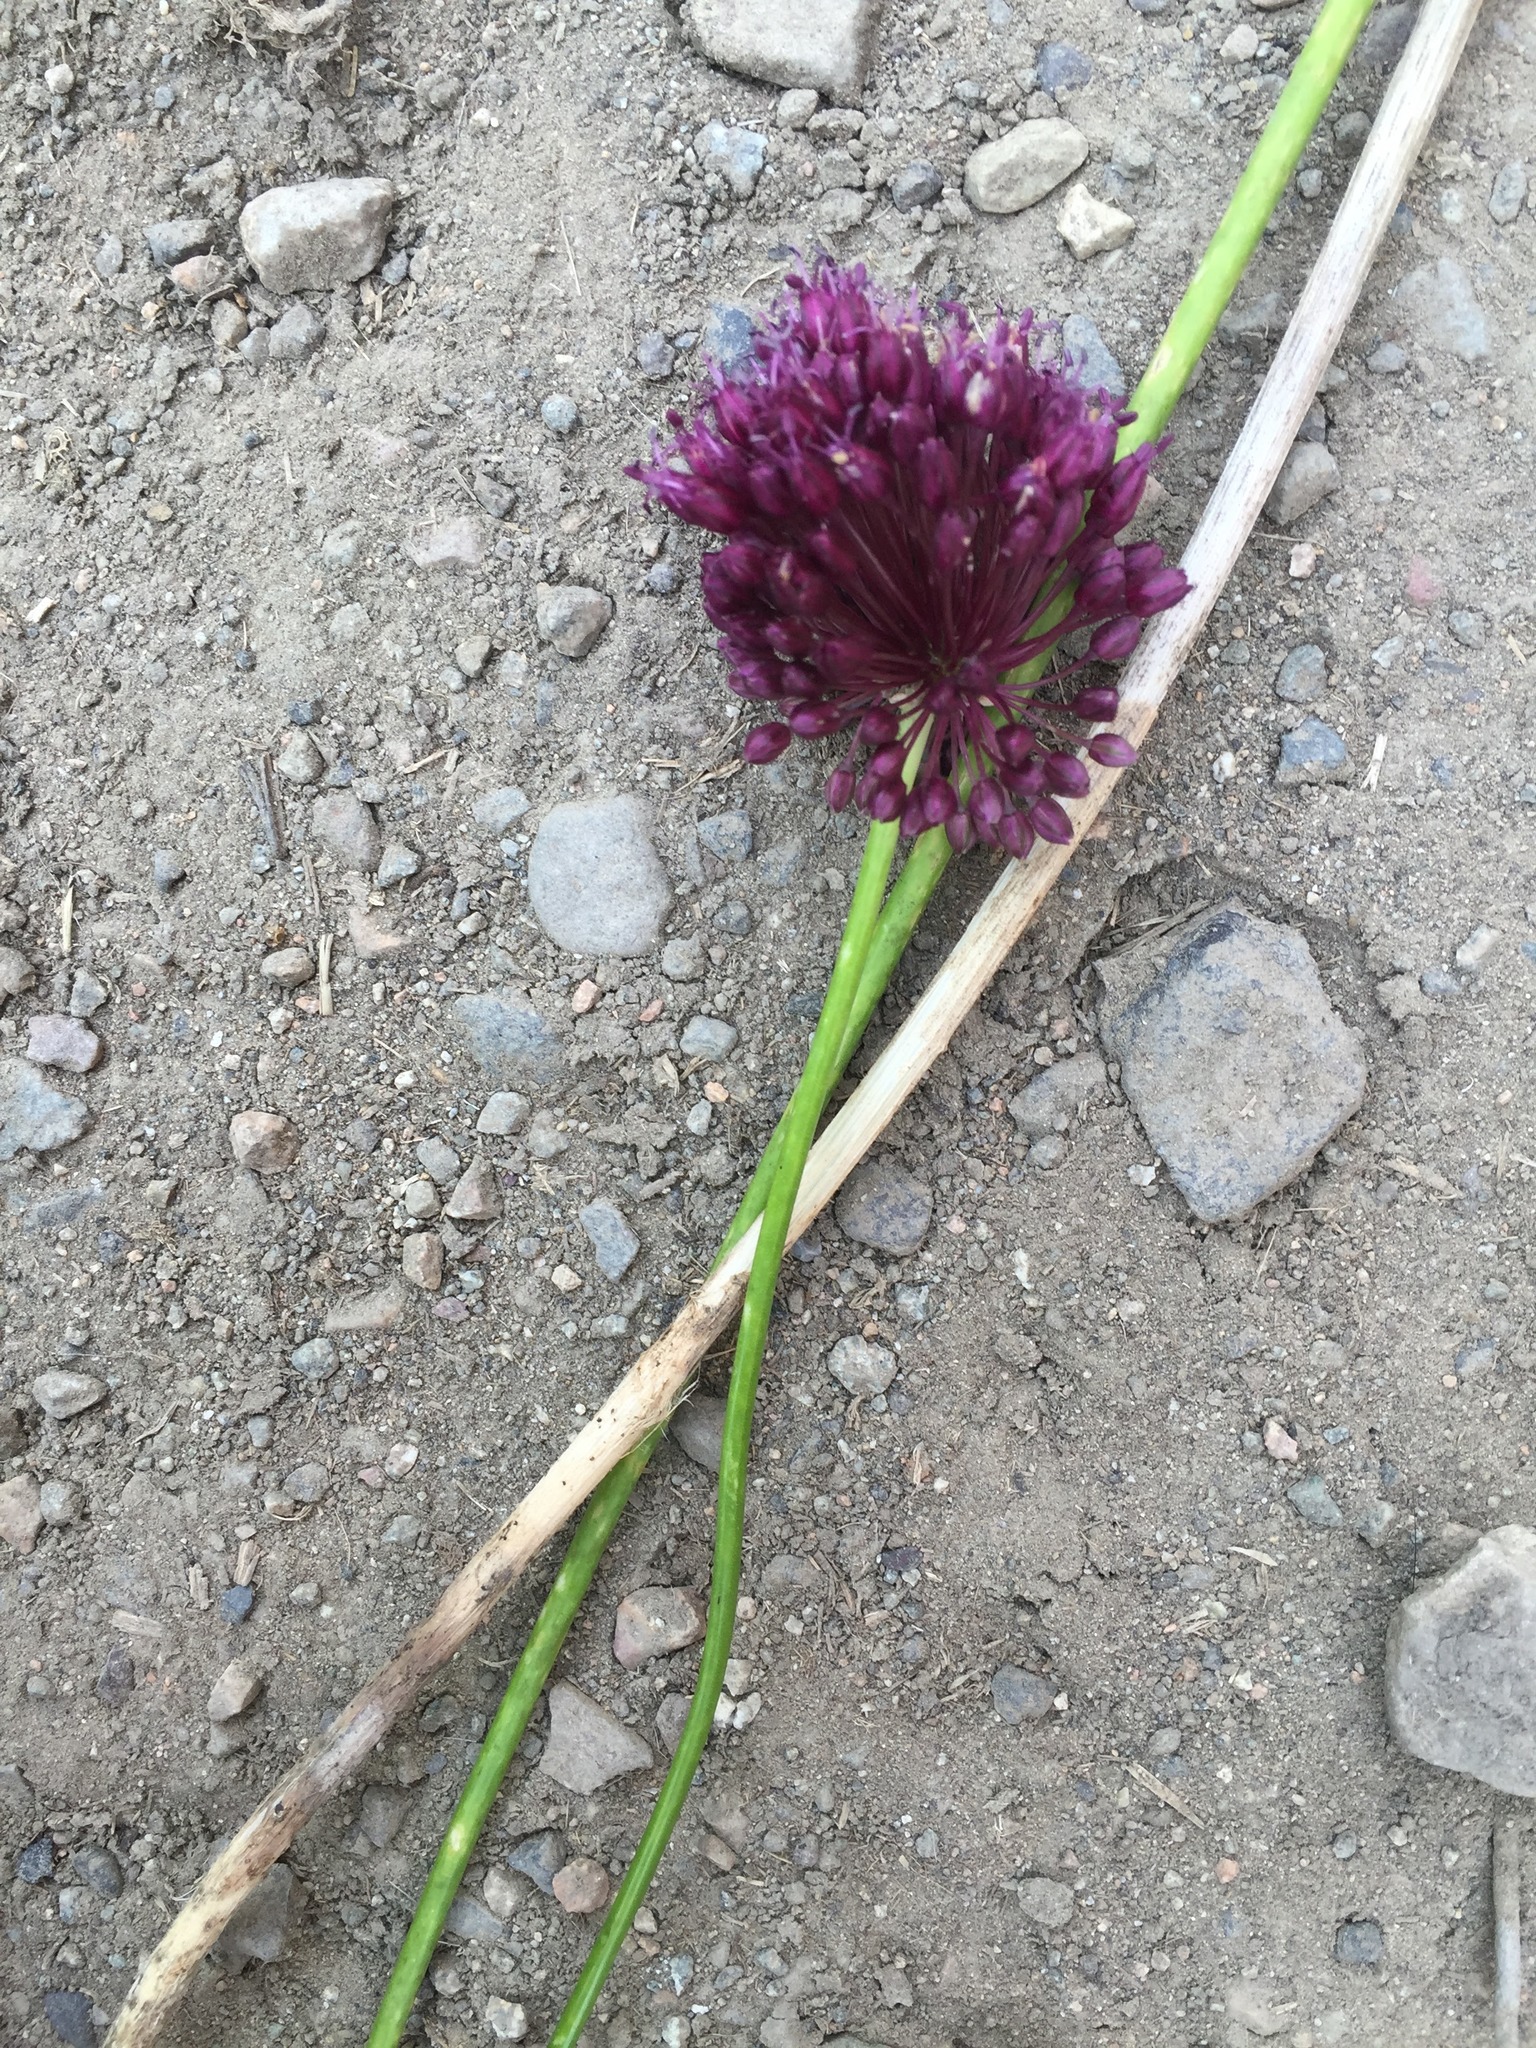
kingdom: Plantae
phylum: Tracheophyta
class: Liliopsida
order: Asparagales
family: Amaryllidaceae
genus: Allium
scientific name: Allium atroviolaceum
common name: Broadleaf wild leek
